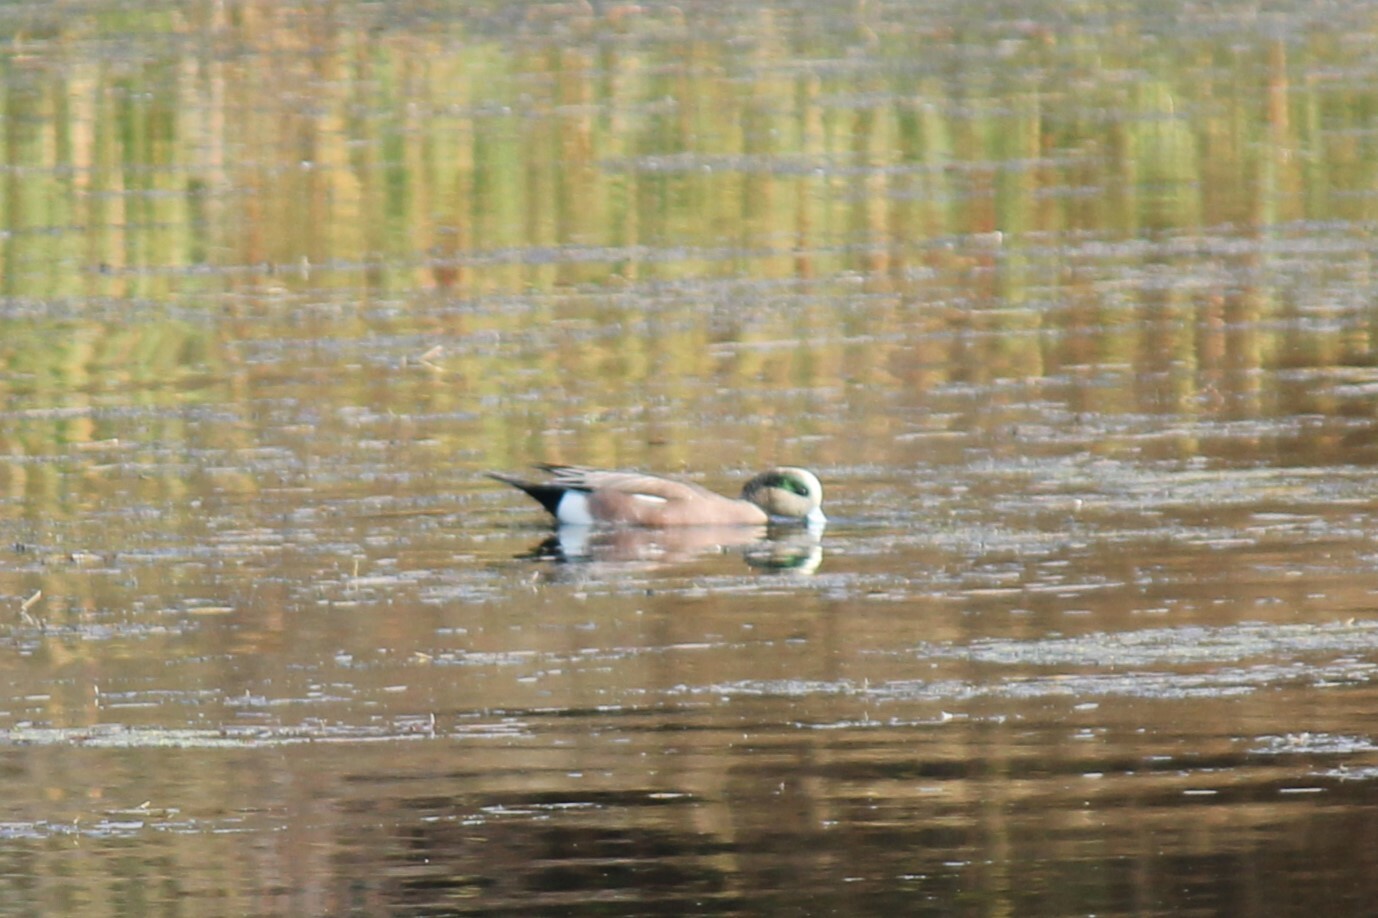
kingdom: Animalia
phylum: Chordata
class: Aves
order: Anseriformes
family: Anatidae
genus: Mareca
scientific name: Mareca americana
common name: American wigeon
